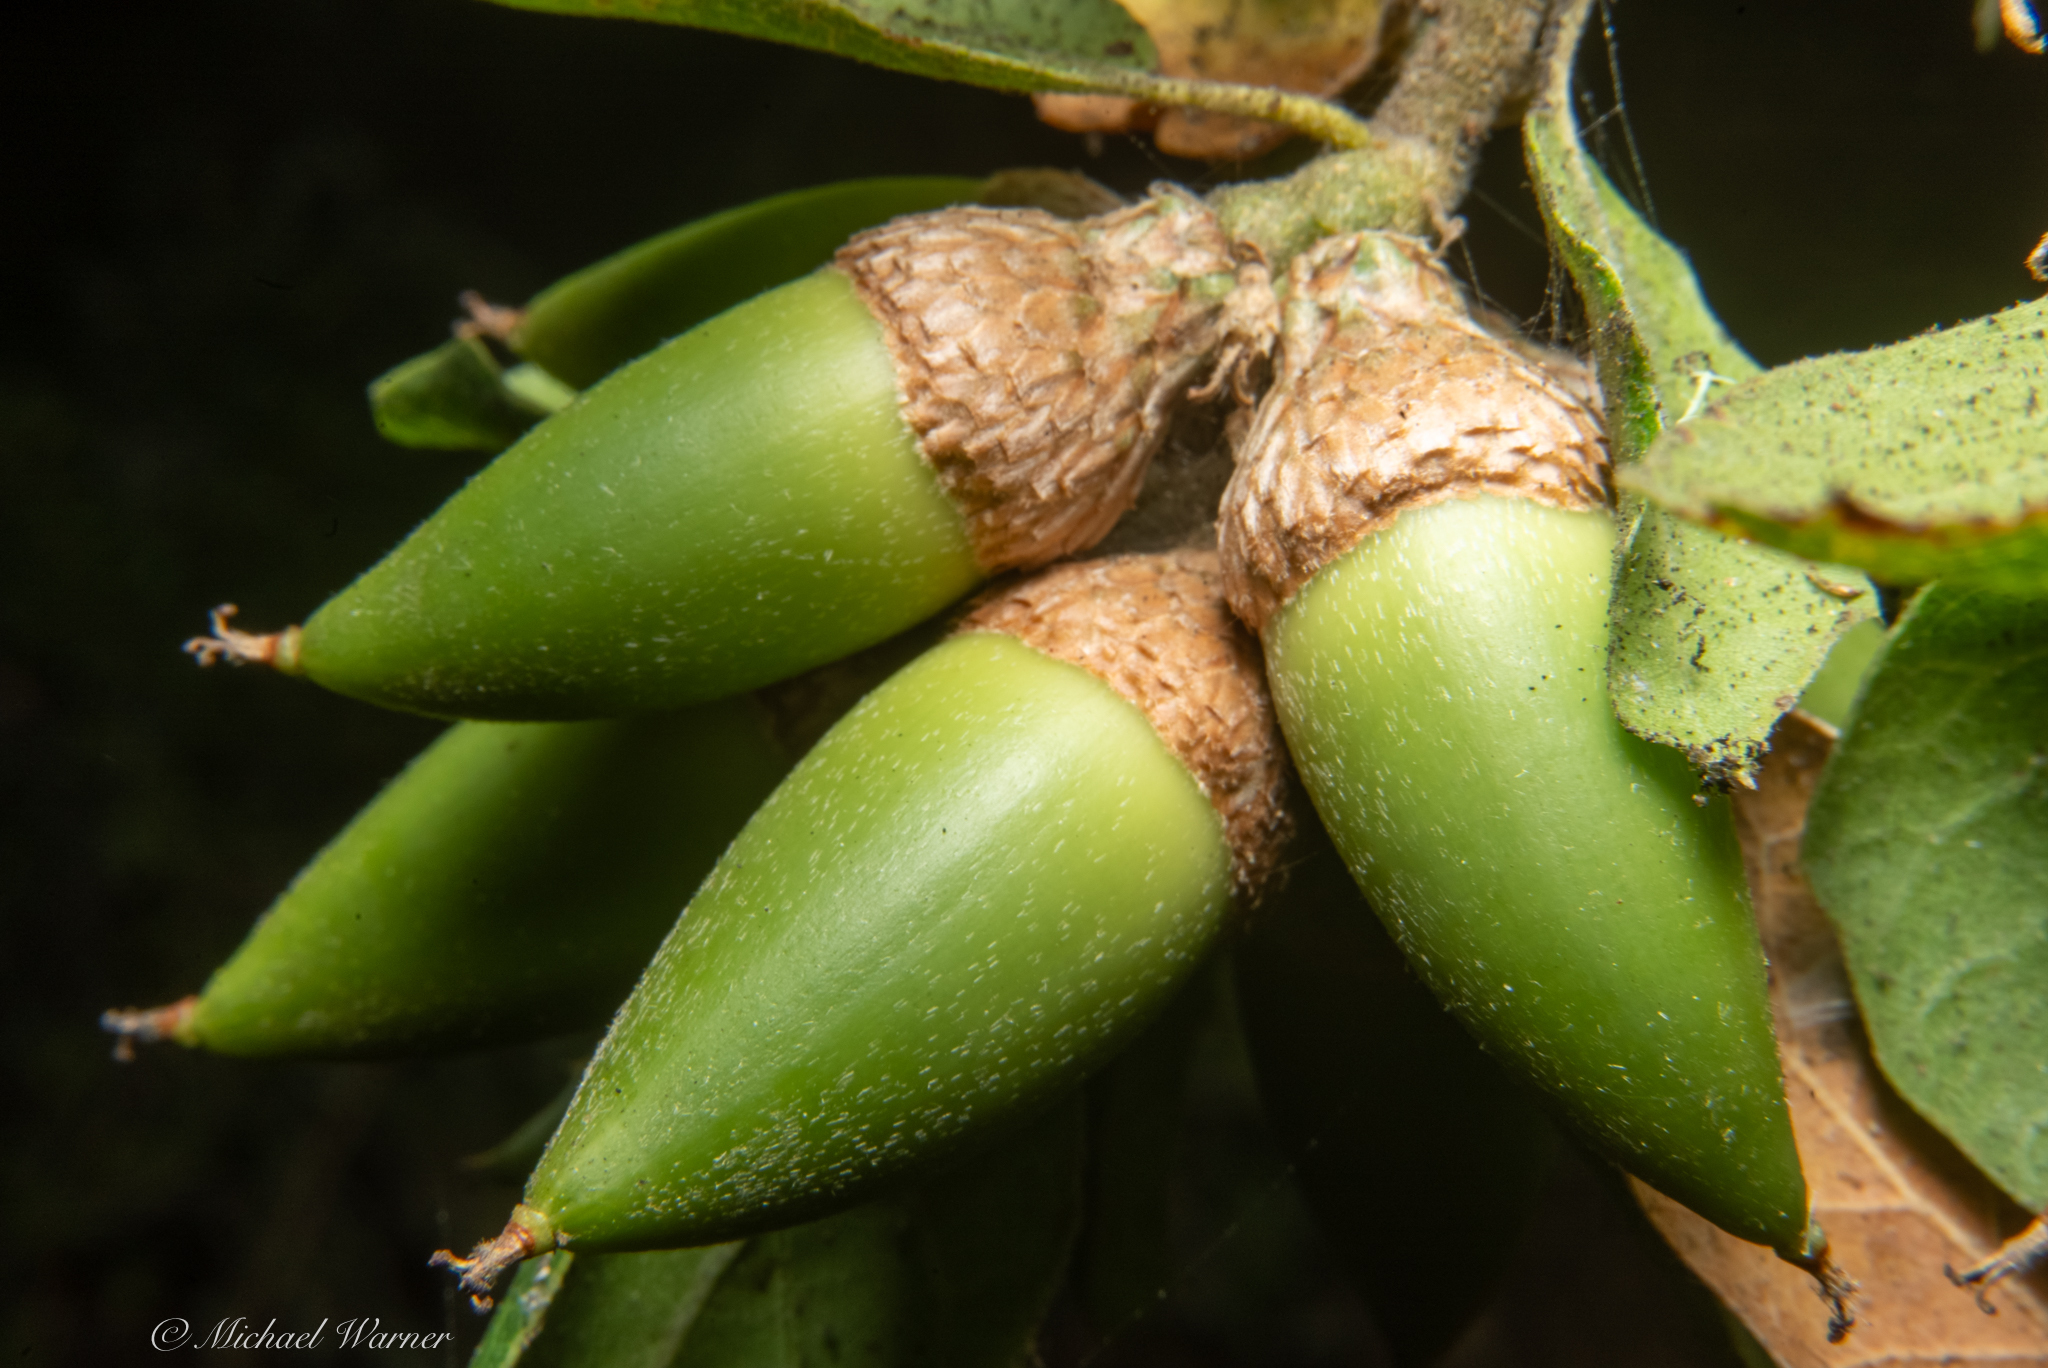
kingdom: Plantae
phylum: Tracheophyta
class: Magnoliopsida
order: Fagales
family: Fagaceae
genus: Quercus
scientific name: Quercus agrifolia
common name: California live oak
